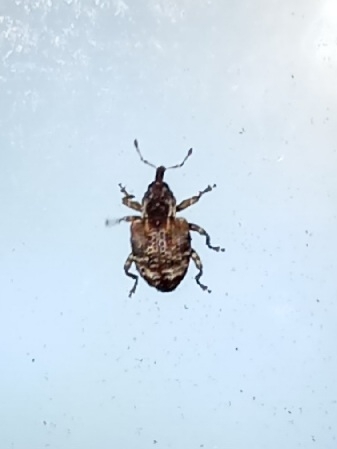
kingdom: Animalia
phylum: Arthropoda
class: Insecta
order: Coleoptera
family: Curculionidae
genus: Conotrachelus
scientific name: Conotrachelus anaglypticus
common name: Cambium curculio
